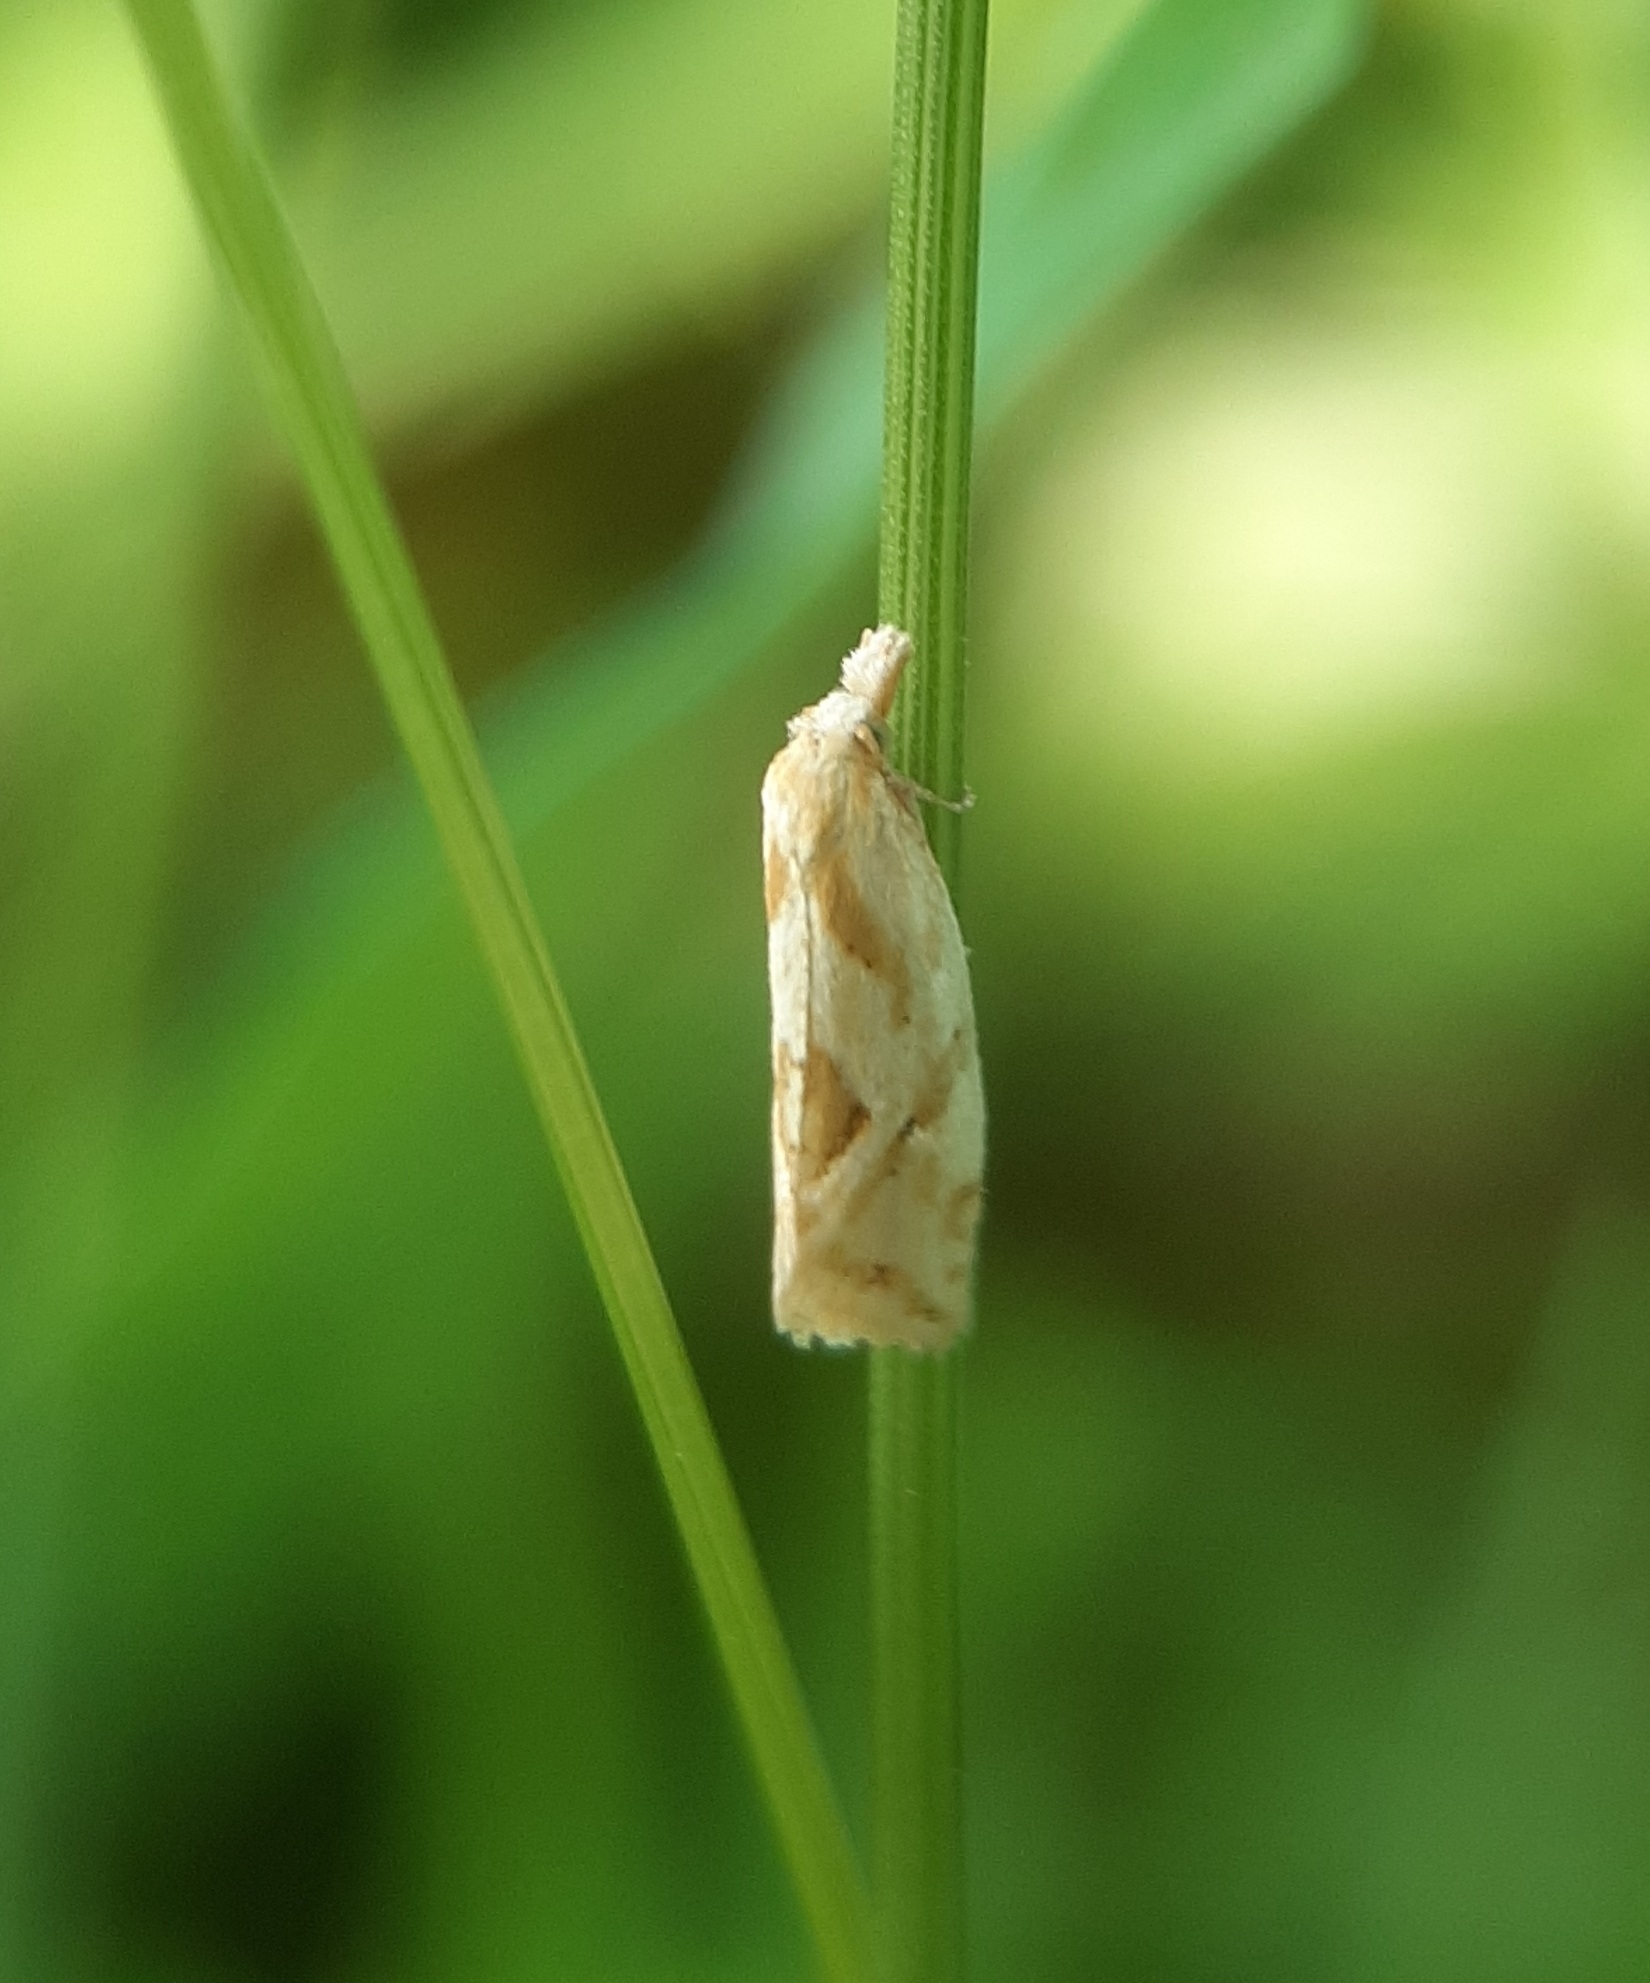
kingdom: Animalia
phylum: Arthropoda
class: Insecta
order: Lepidoptera
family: Tortricidae
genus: Aethes
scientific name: Aethes promptana
